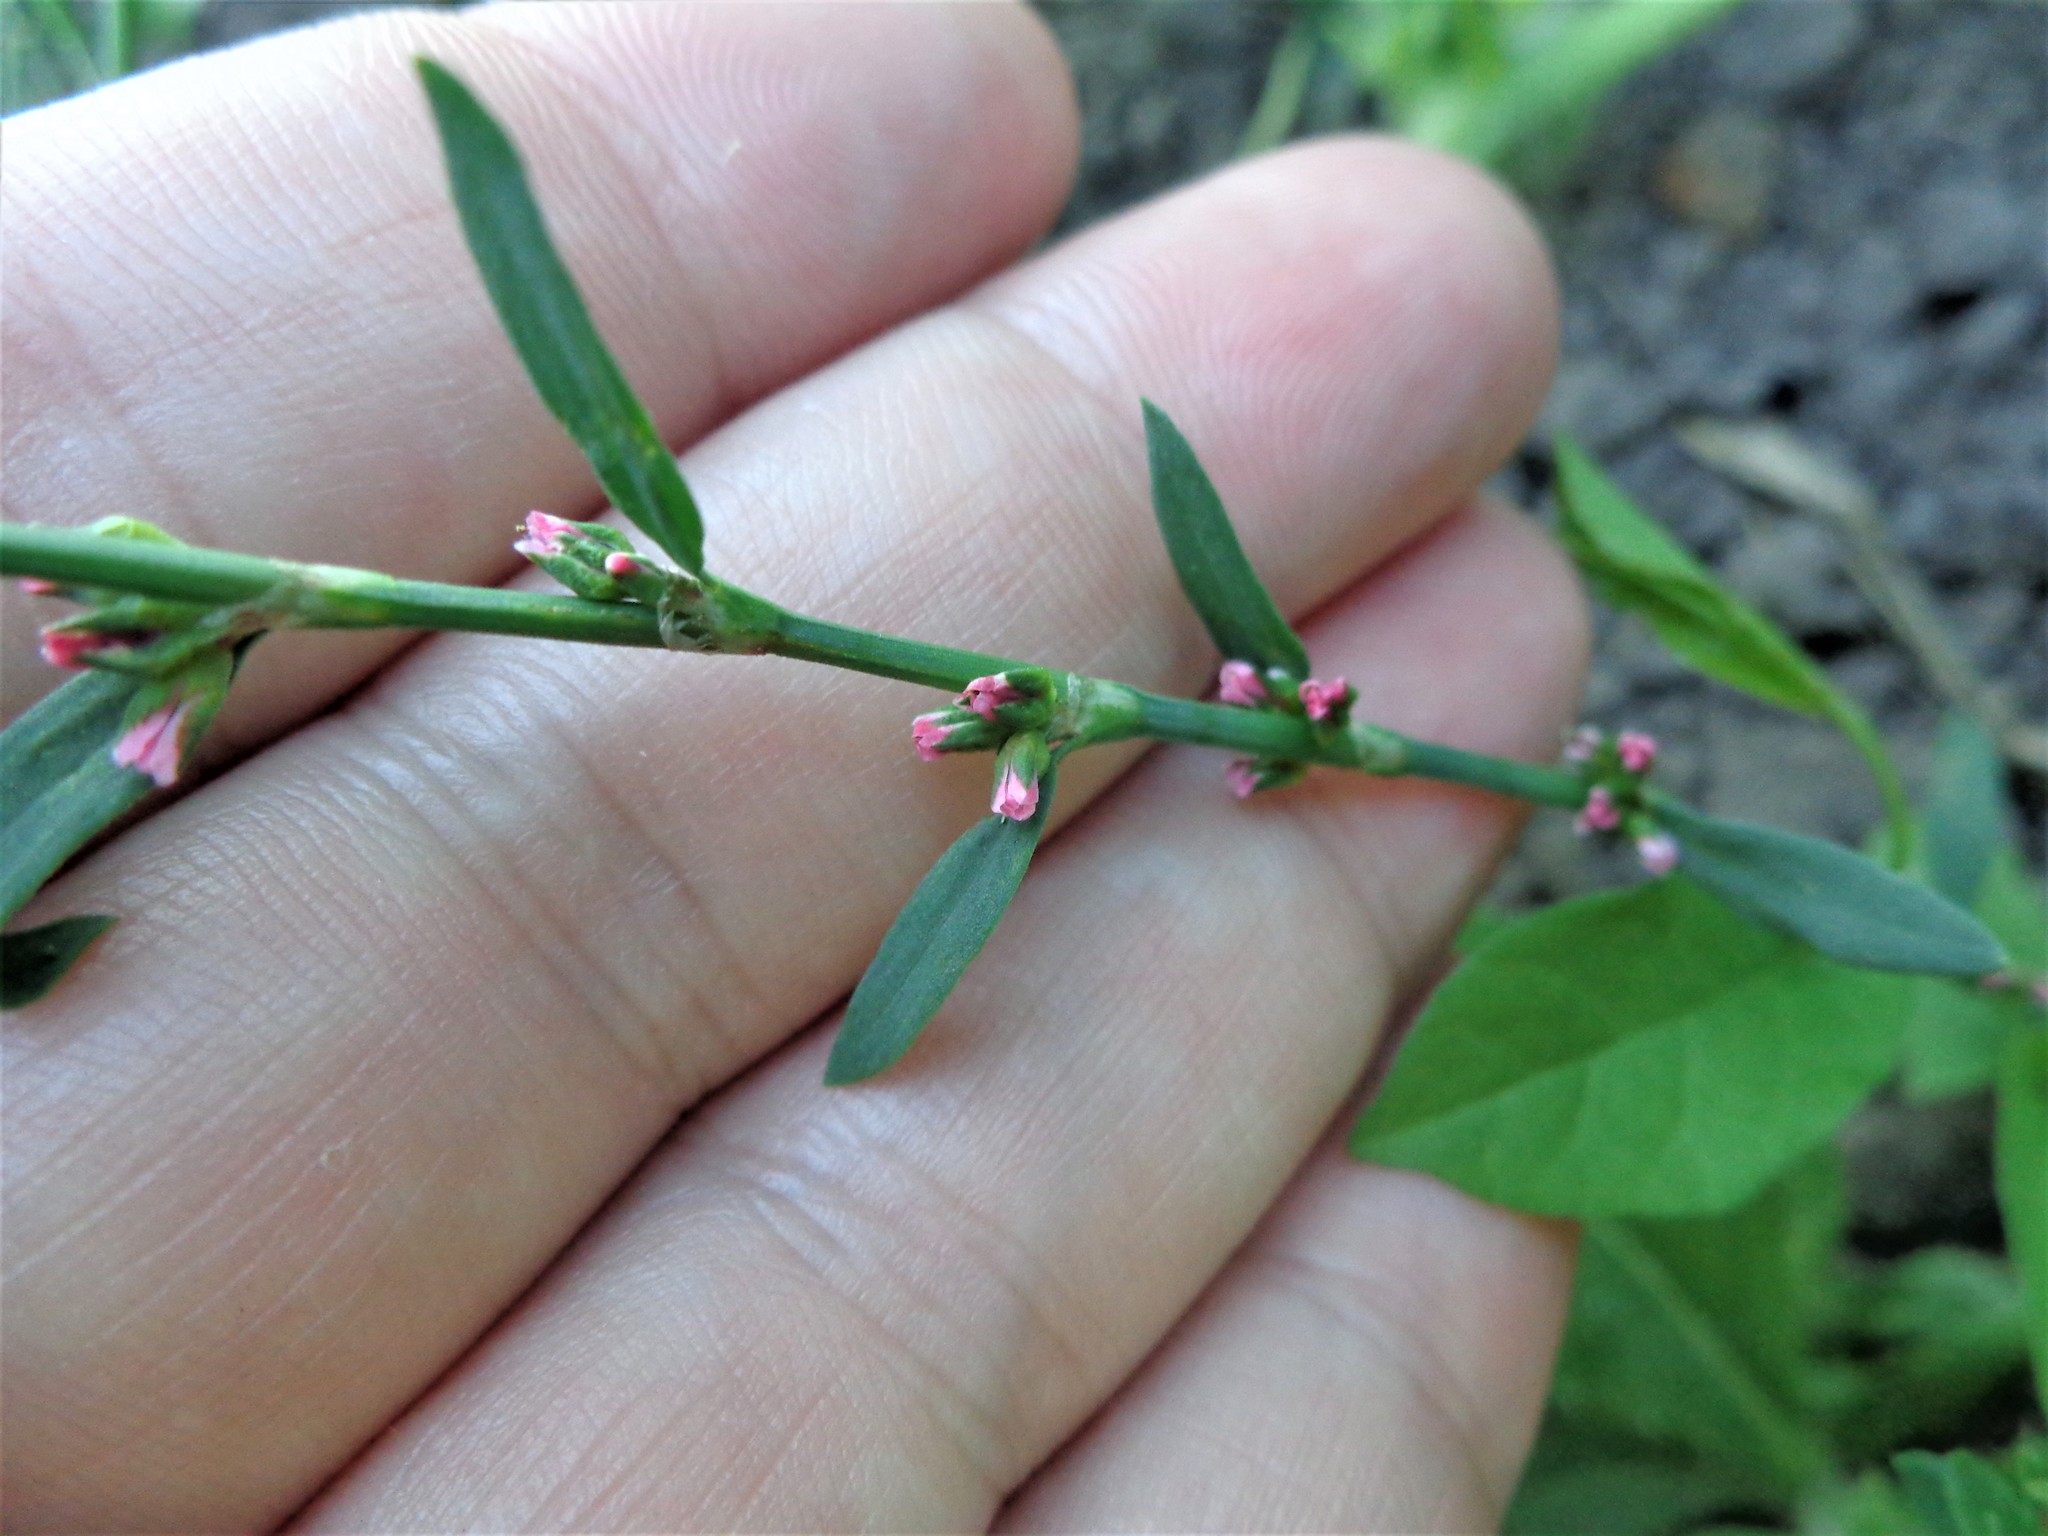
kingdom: Plantae
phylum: Tracheophyta
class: Magnoliopsida
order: Caryophyllales
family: Polygonaceae
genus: Polygonum
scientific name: Polygonum
